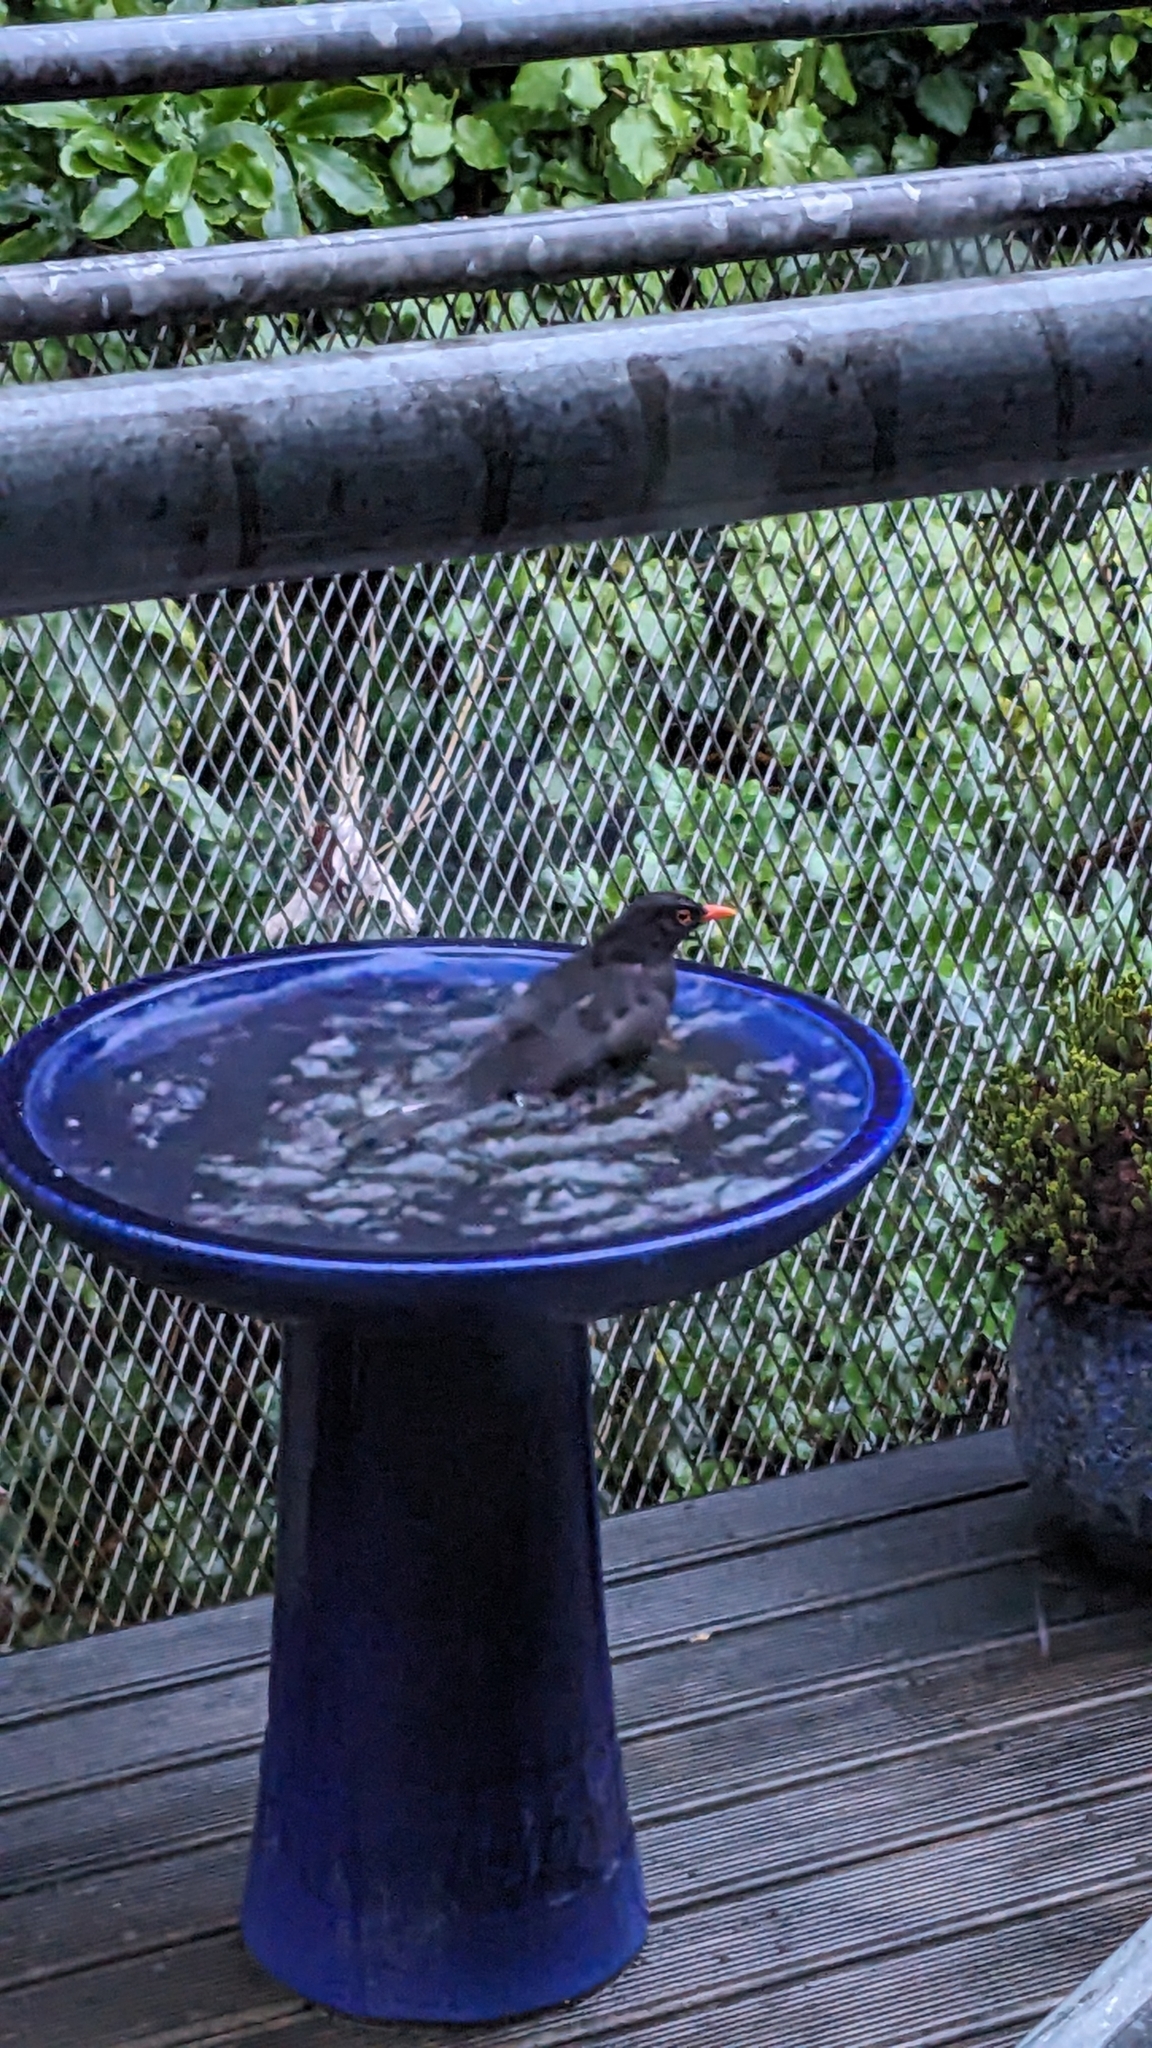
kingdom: Animalia
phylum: Chordata
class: Aves
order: Passeriformes
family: Turdidae
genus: Turdus
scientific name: Turdus merula
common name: Common blackbird
